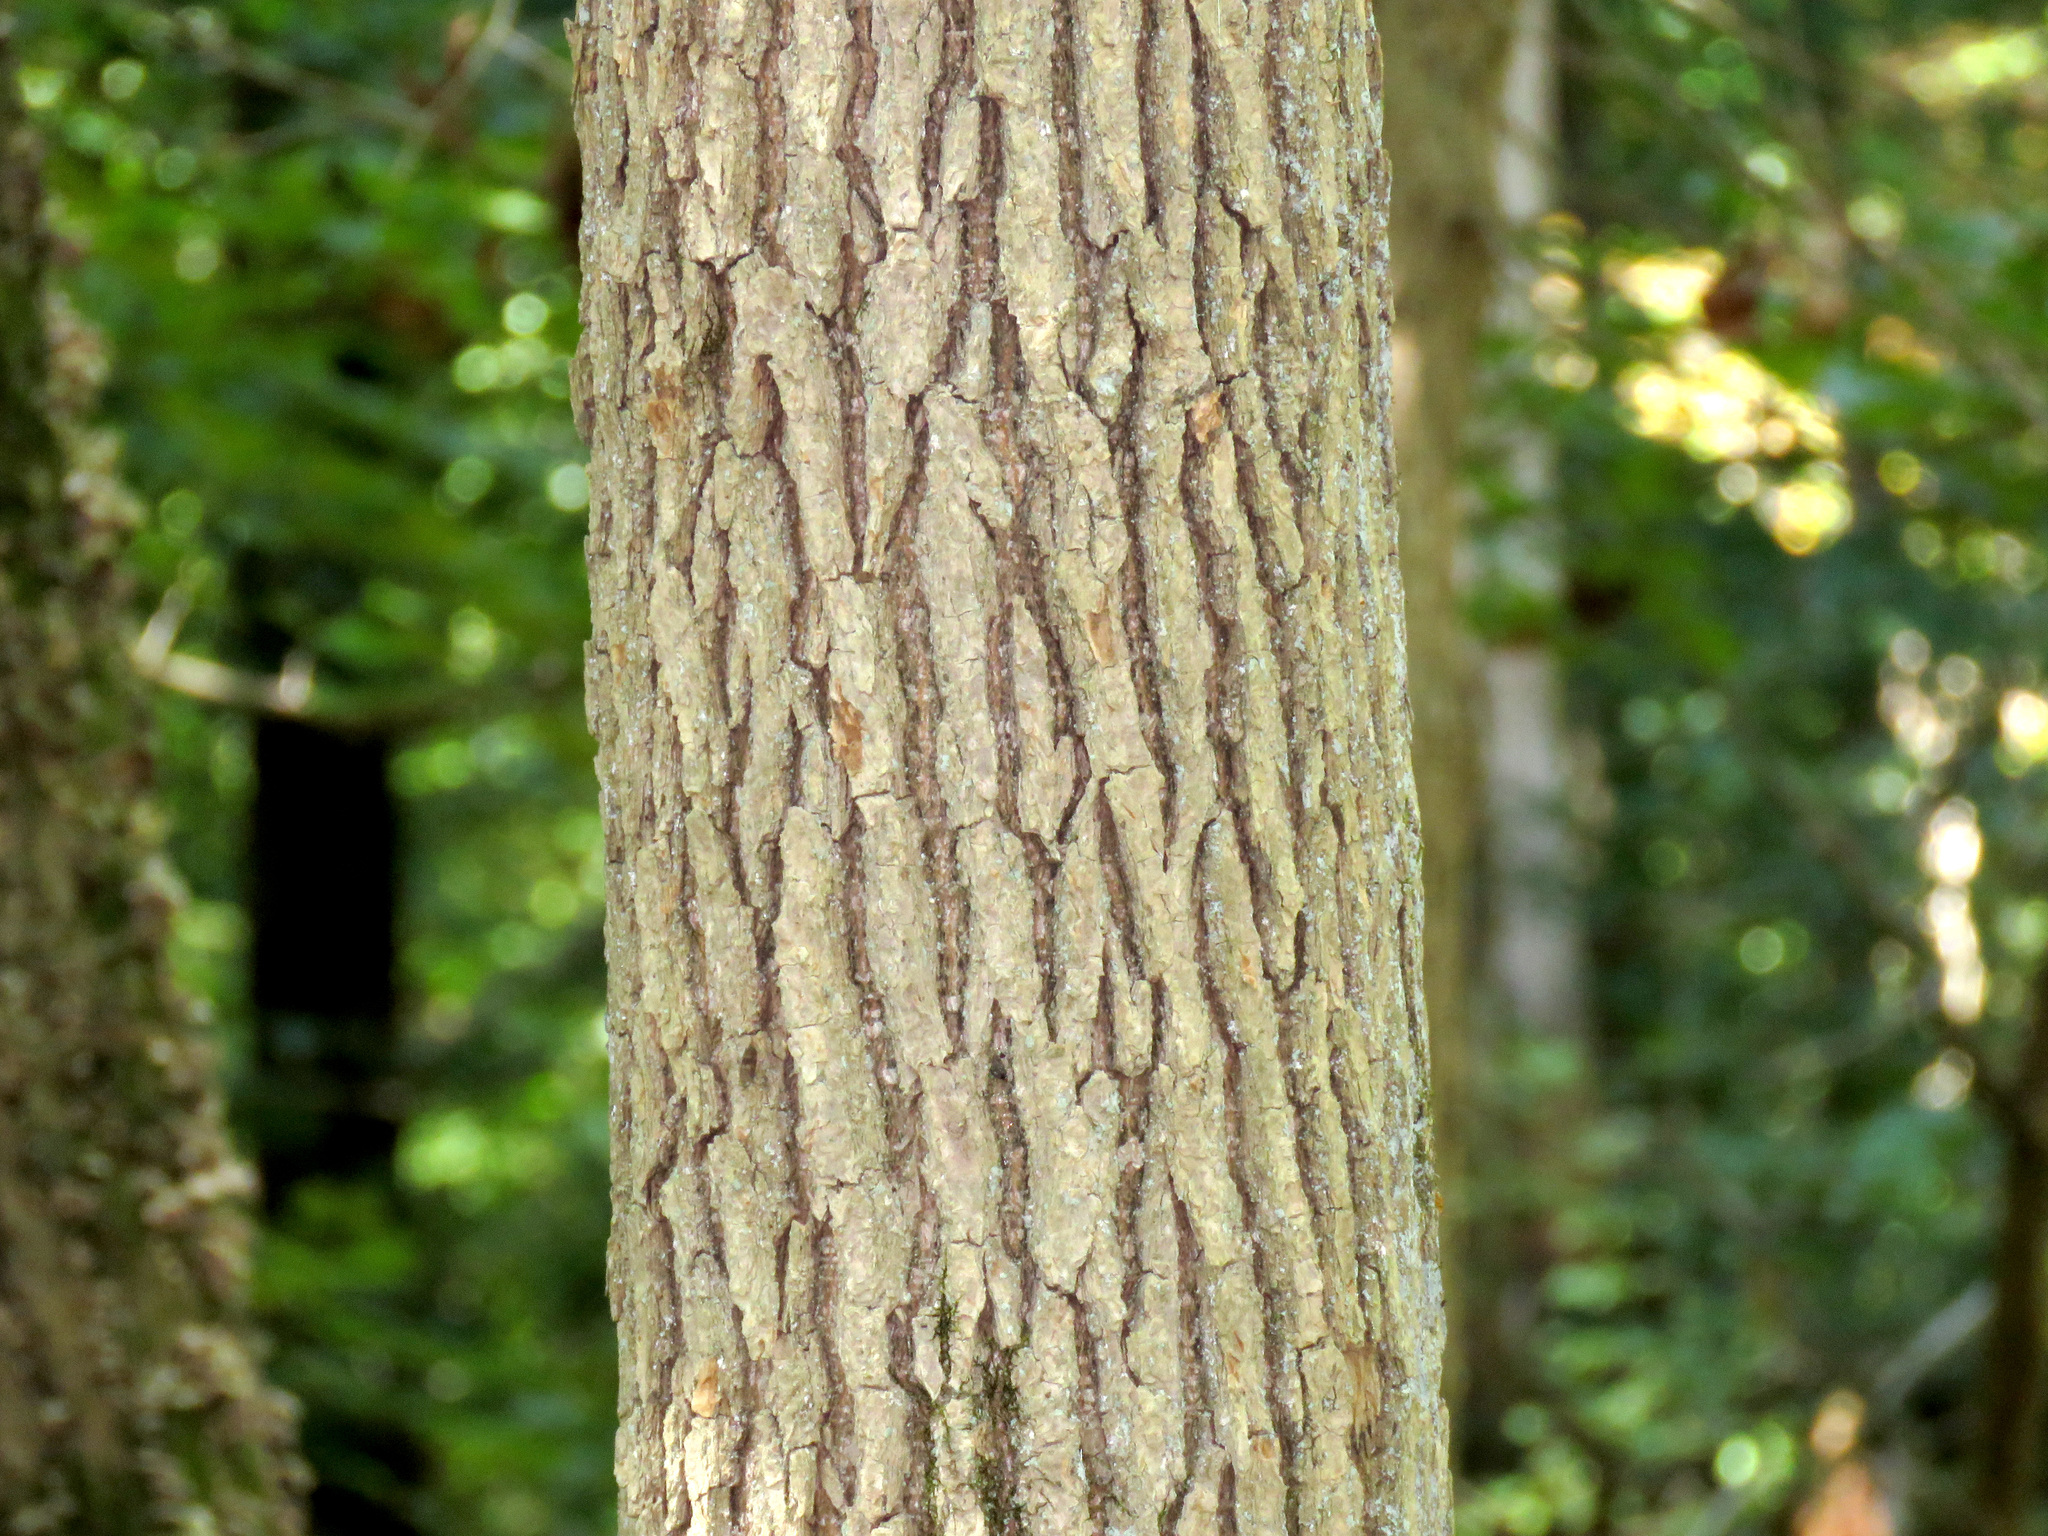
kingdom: Plantae
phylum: Tracheophyta
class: Magnoliopsida
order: Cornales
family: Nyssaceae
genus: Nyssa
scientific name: Nyssa sylvatica
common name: Black tupelo
